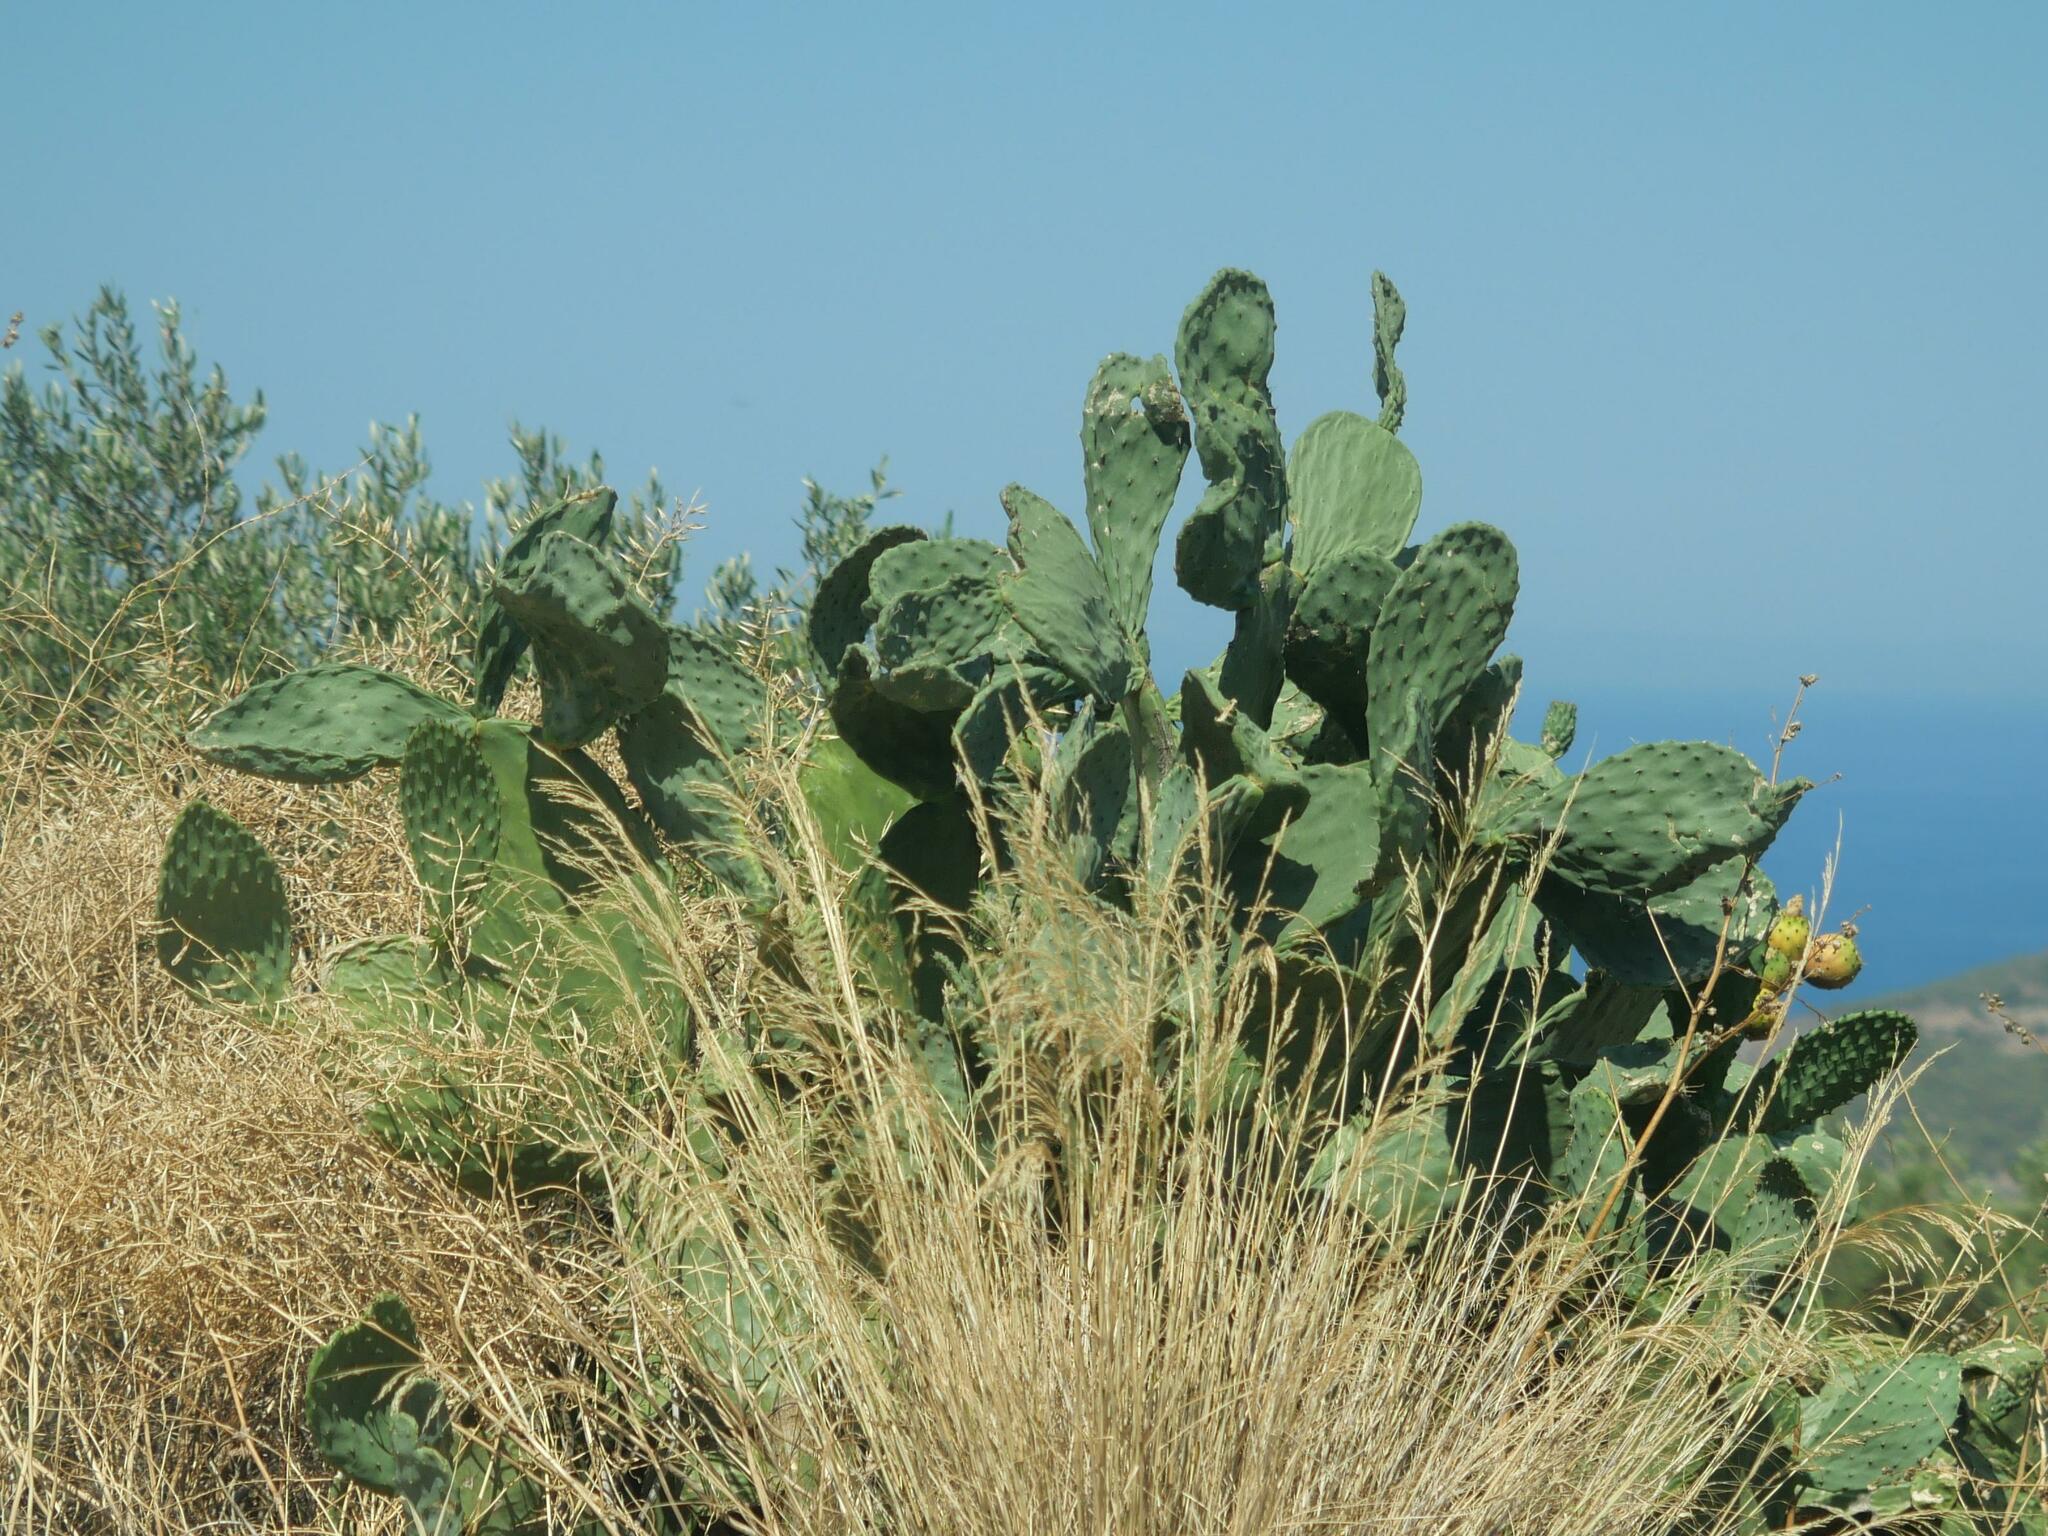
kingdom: Plantae
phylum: Tracheophyta
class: Magnoliopsida
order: Caryophyllales
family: Cactaceae
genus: Opuntia
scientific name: Opuntia ficus-indica
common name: Barbary fig
